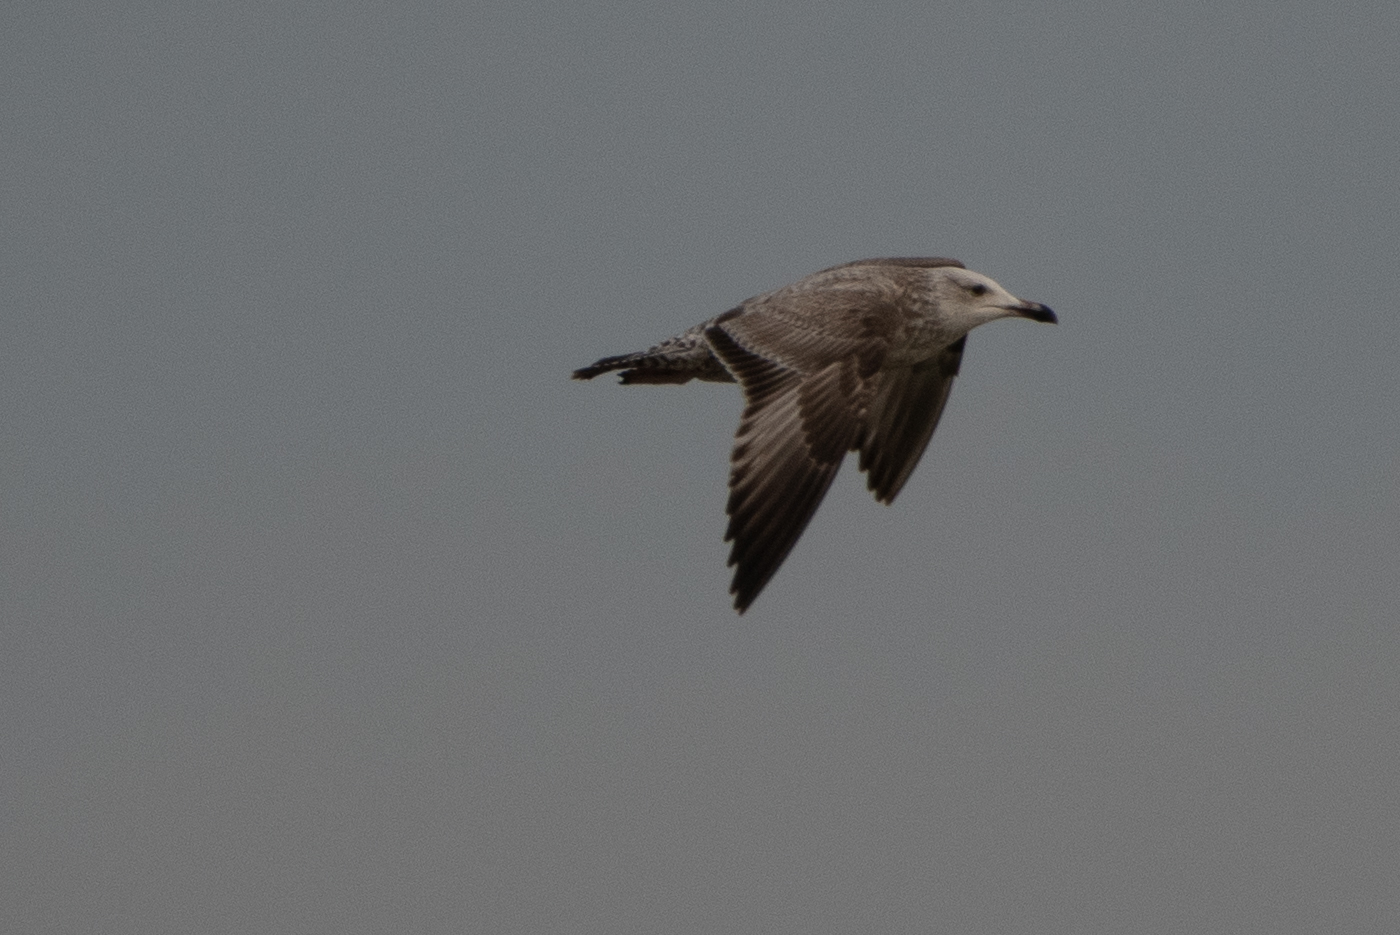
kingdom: Animalia
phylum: Chordata
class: Aves
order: Charadriiformes
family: Laridae
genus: Larus
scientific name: Larus smithsonianus
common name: American herring gull
